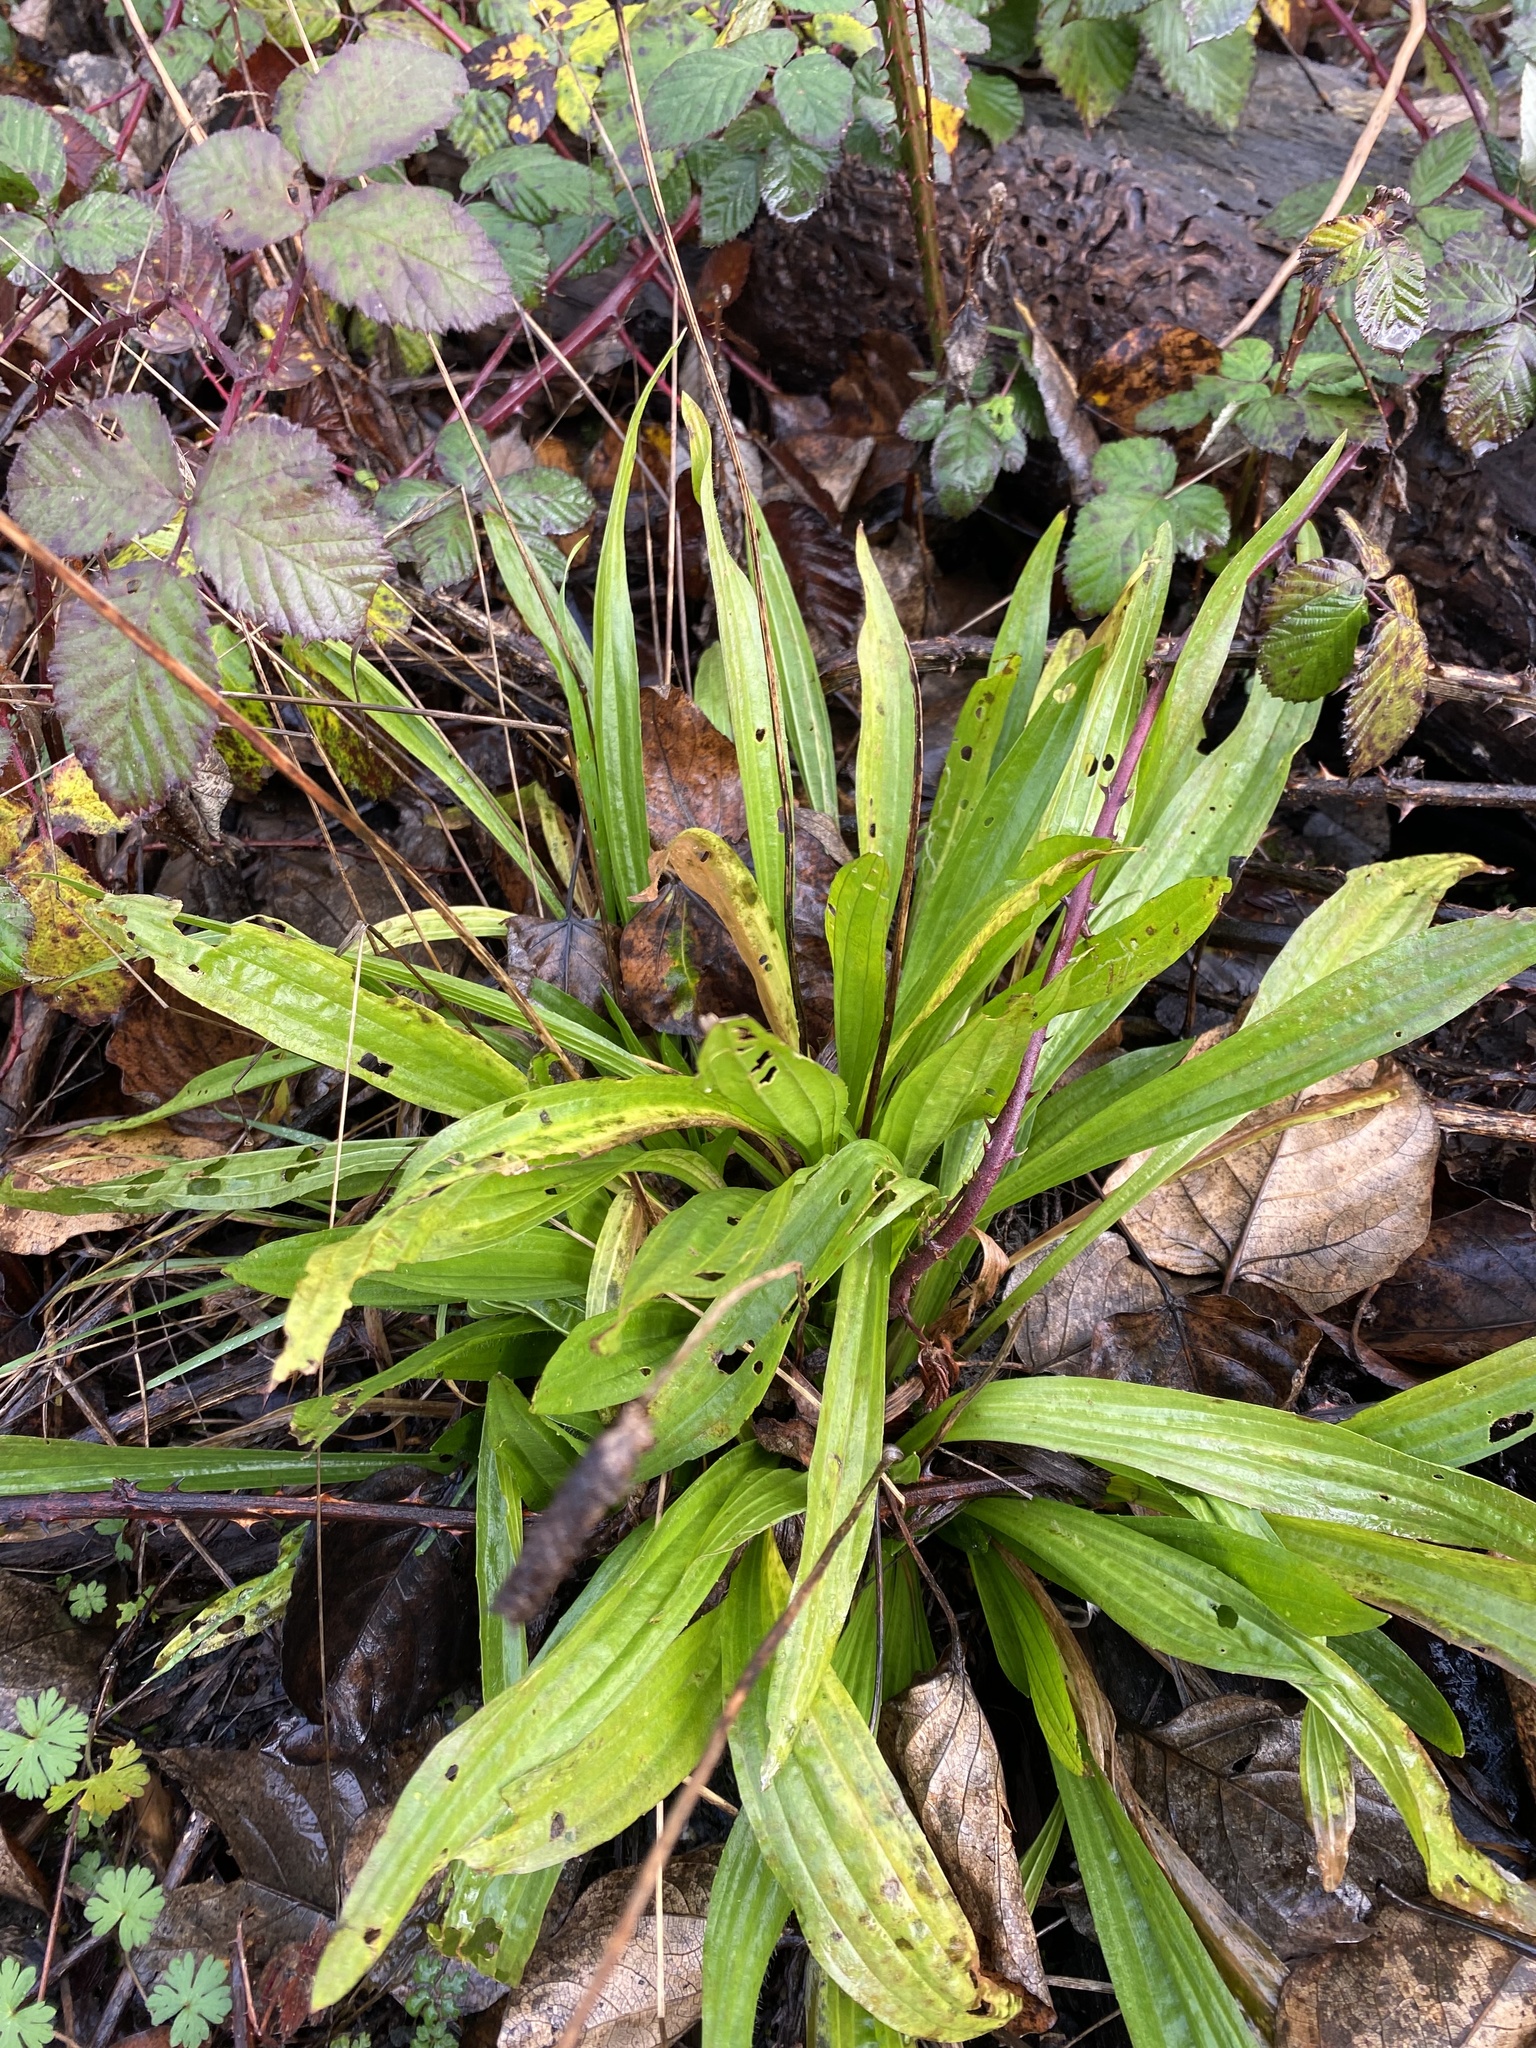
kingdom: Plantae
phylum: Tracheophyta
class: Magnoliopsida
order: Lamiales
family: Plantaginaceae
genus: Plantago
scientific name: Plantago lanceolata
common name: Ribwort plantain
